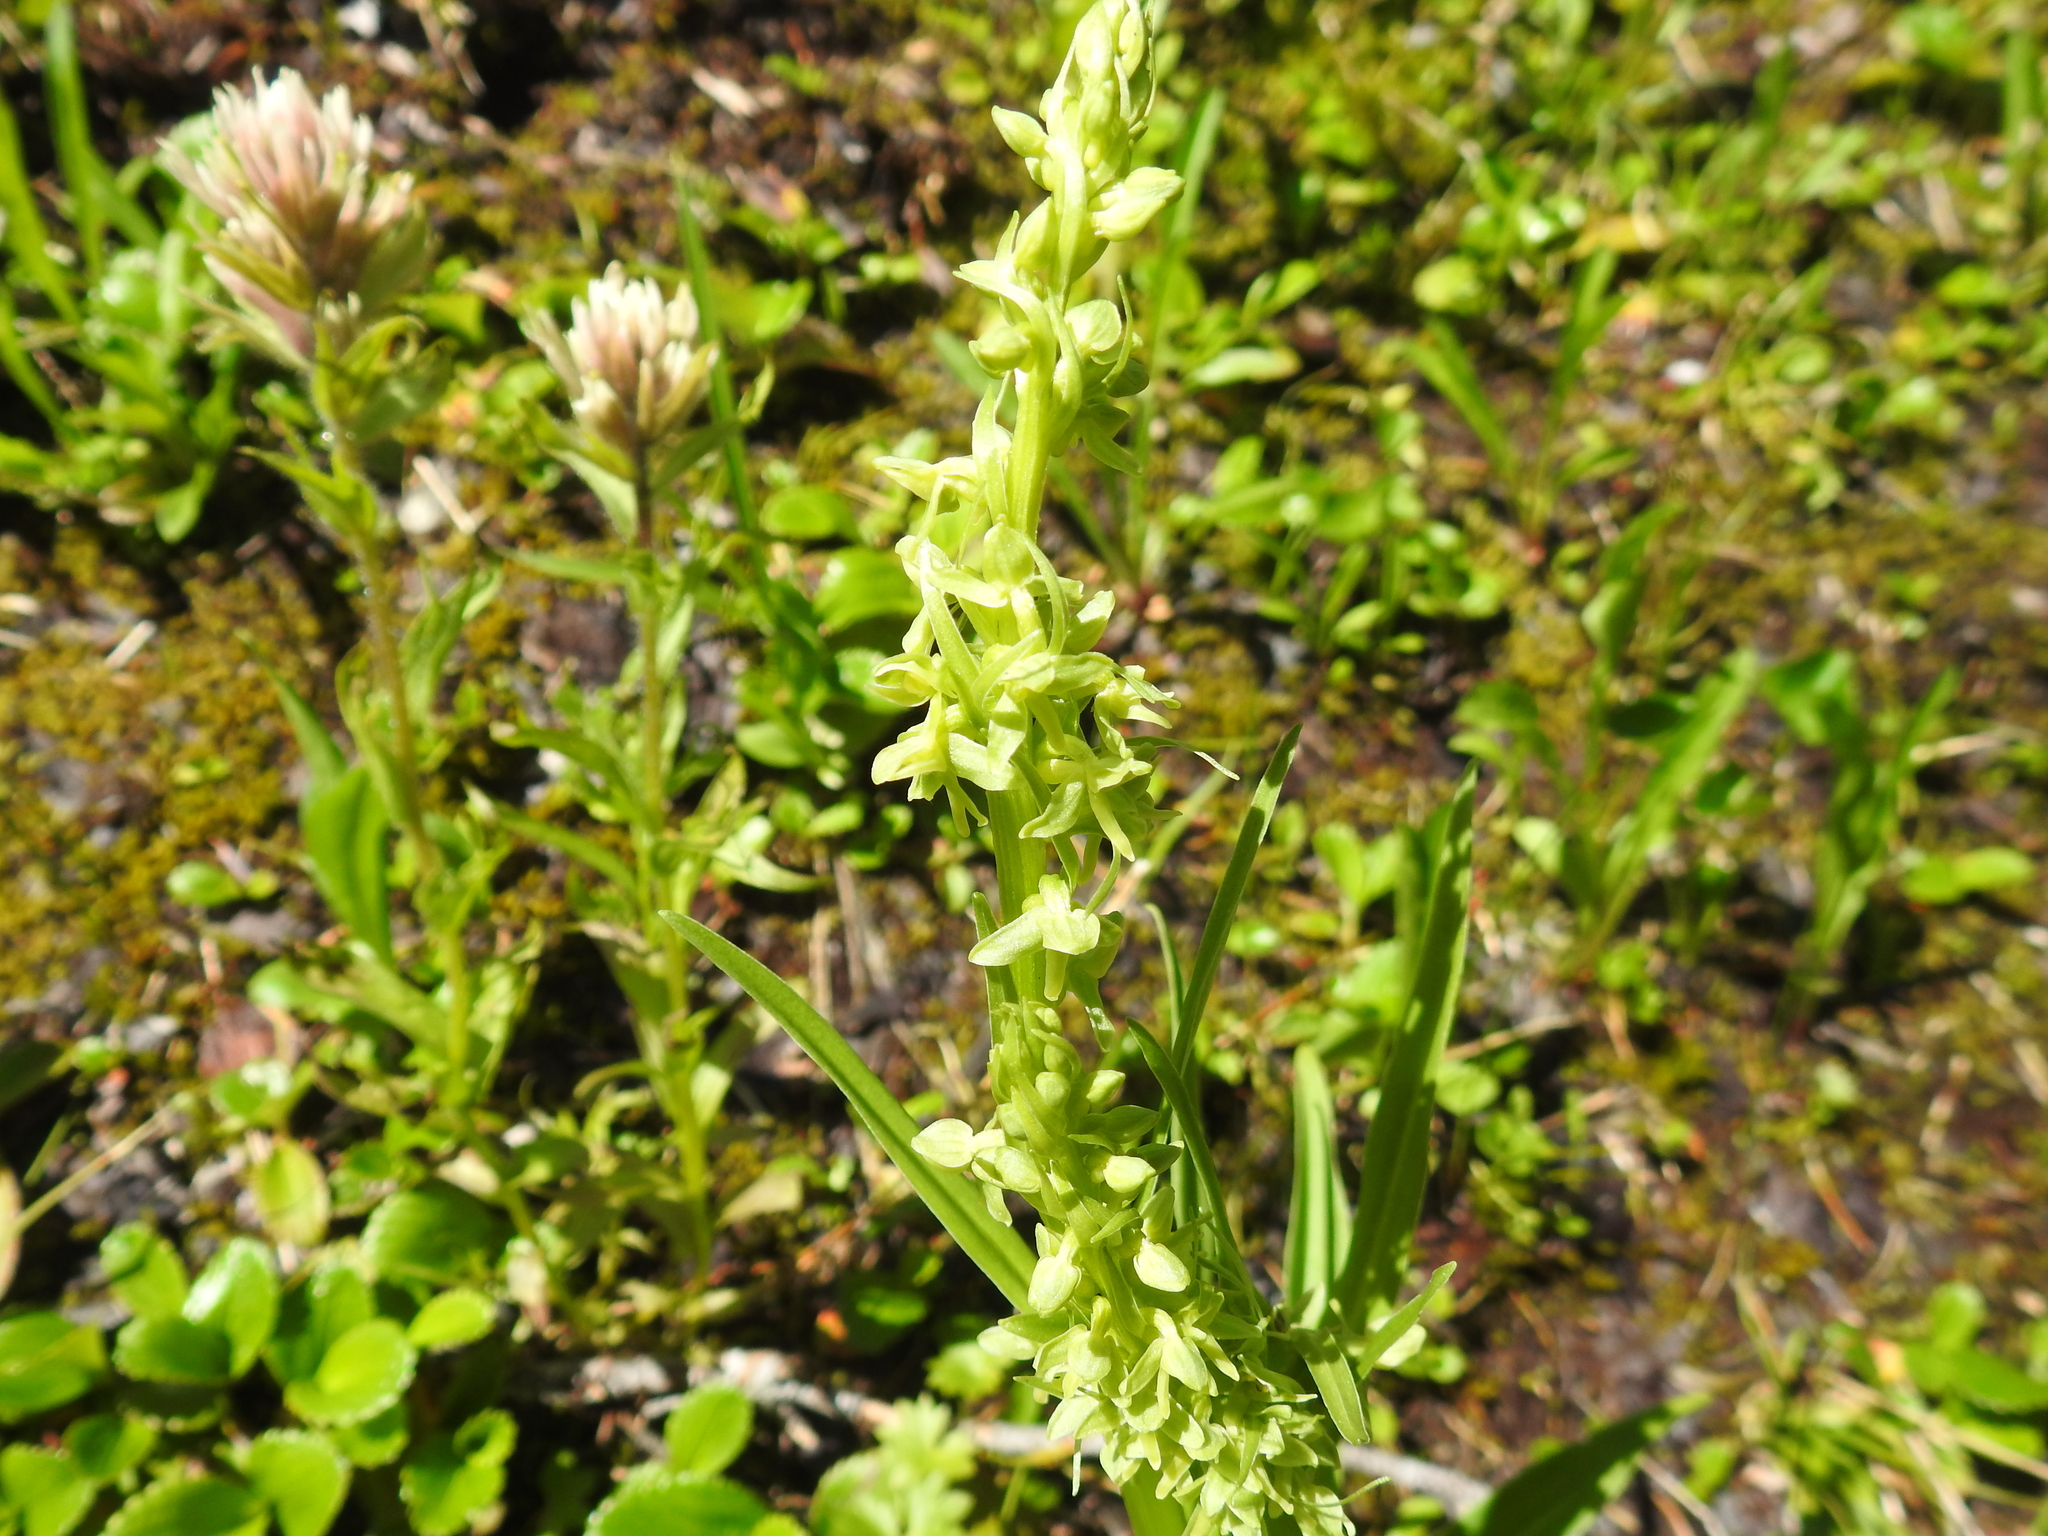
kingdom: Plantae
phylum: Tracheophyta
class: Liliopsida
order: Asparagales
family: Orchidaceae
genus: Platanthera
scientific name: Platanthera stricta
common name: Slender bog orchid
